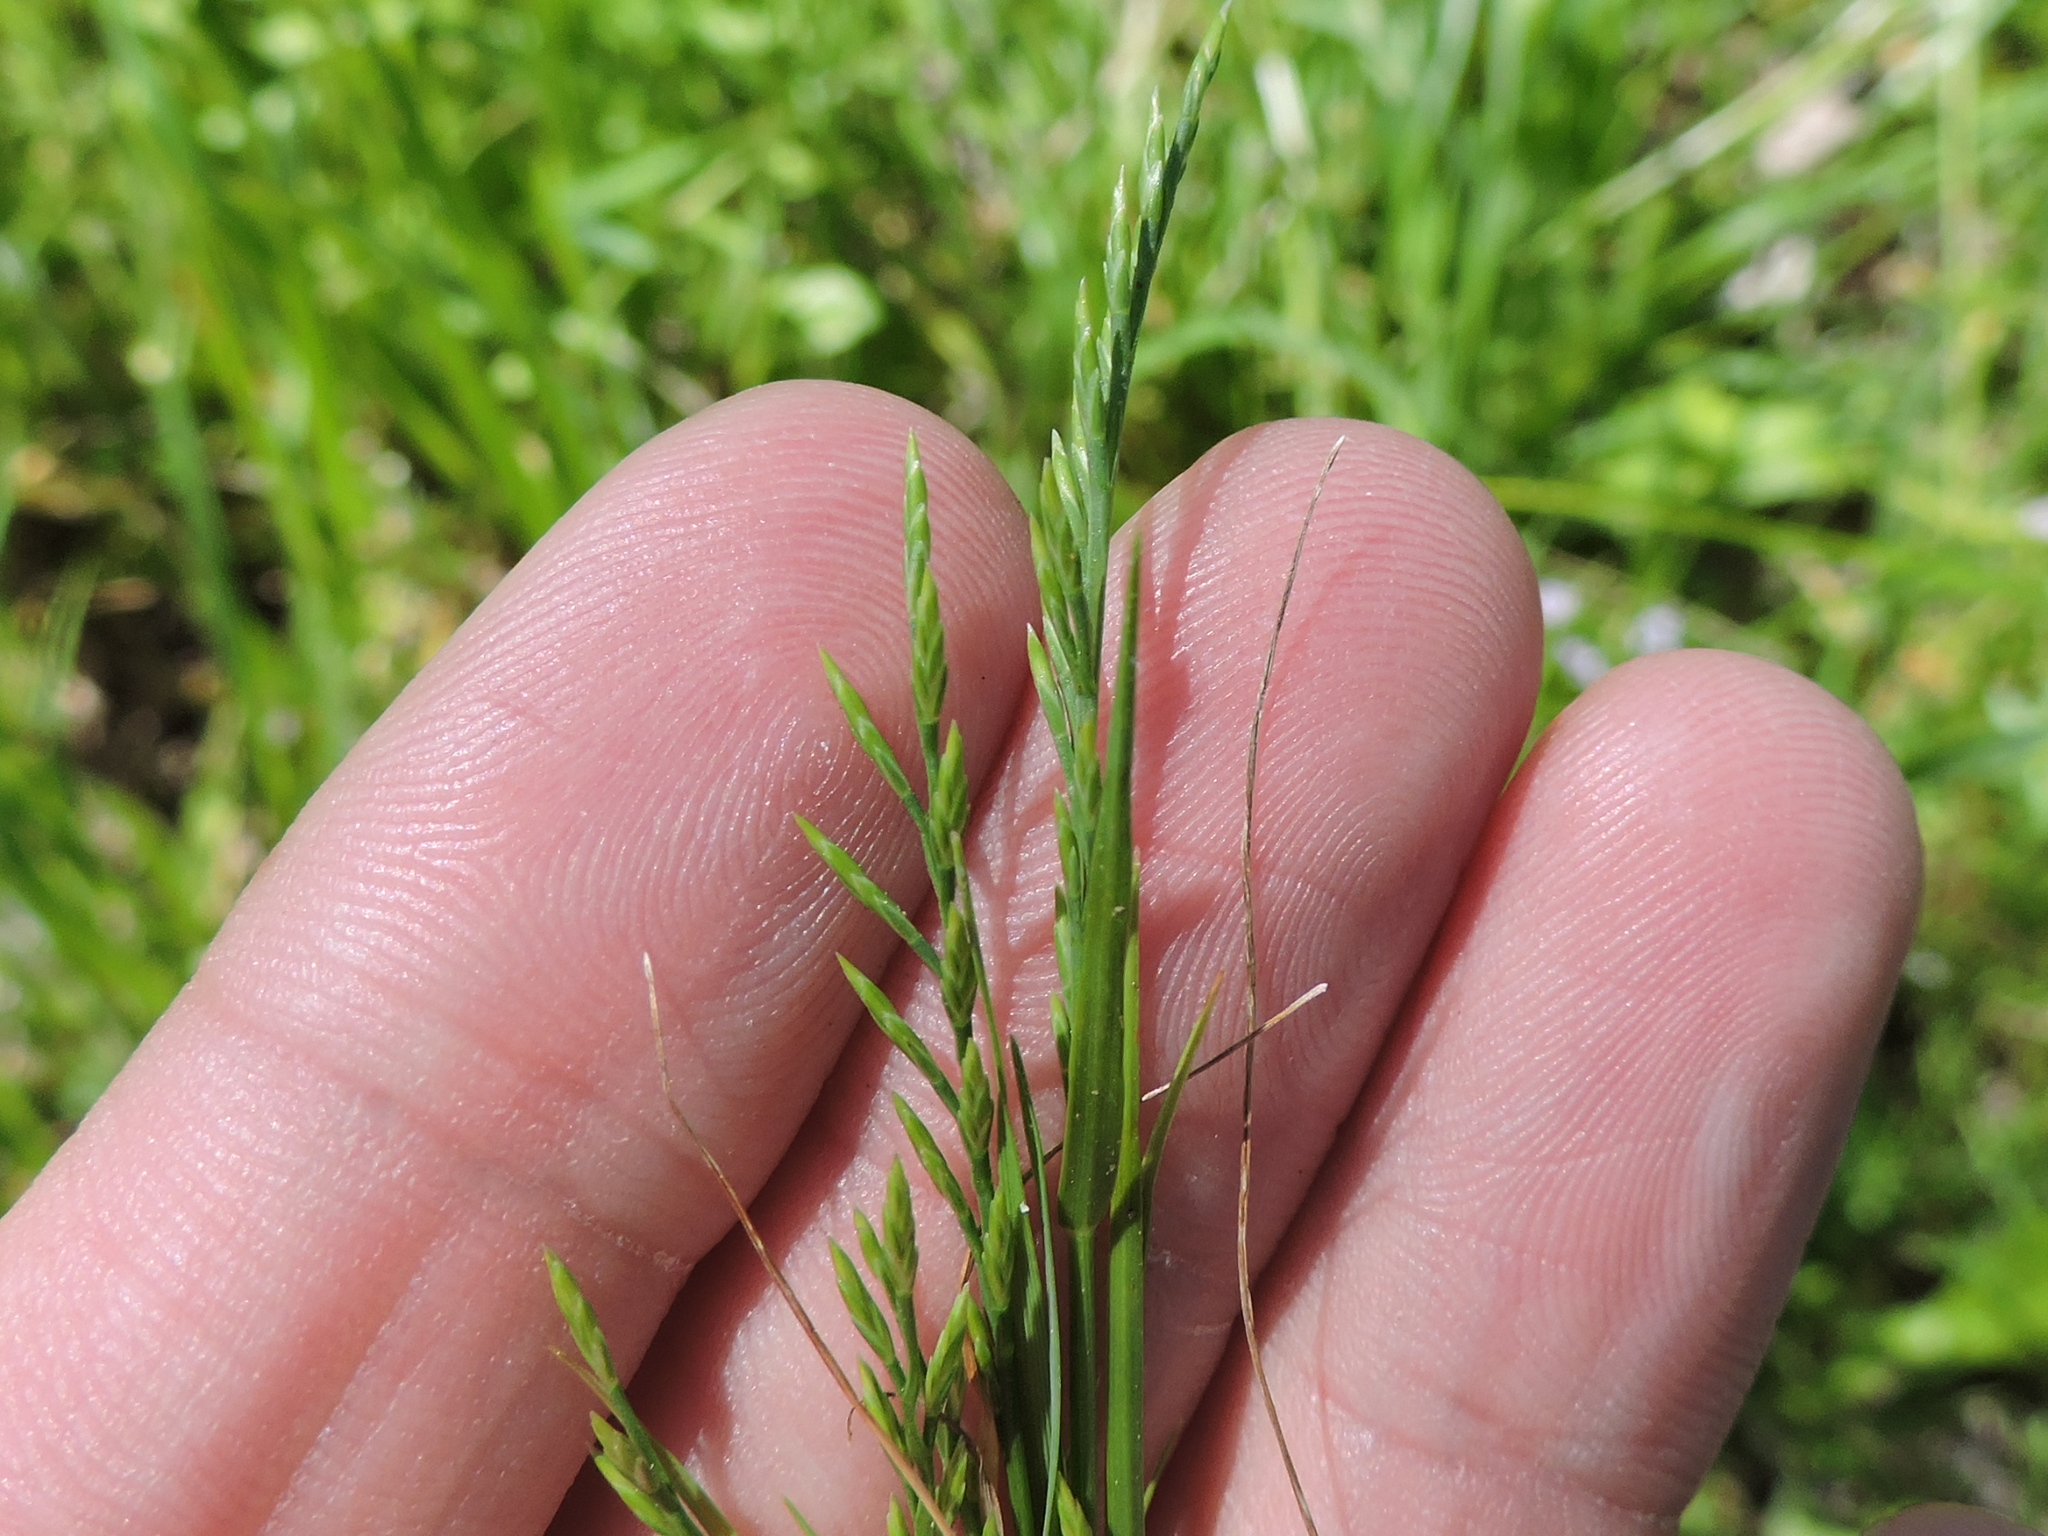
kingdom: Plantae
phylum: Tracheophyta
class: Liliopsida
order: Poales
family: Poaceae
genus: Catapodium
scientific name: Catapodium rigidum
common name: Fern-grass
